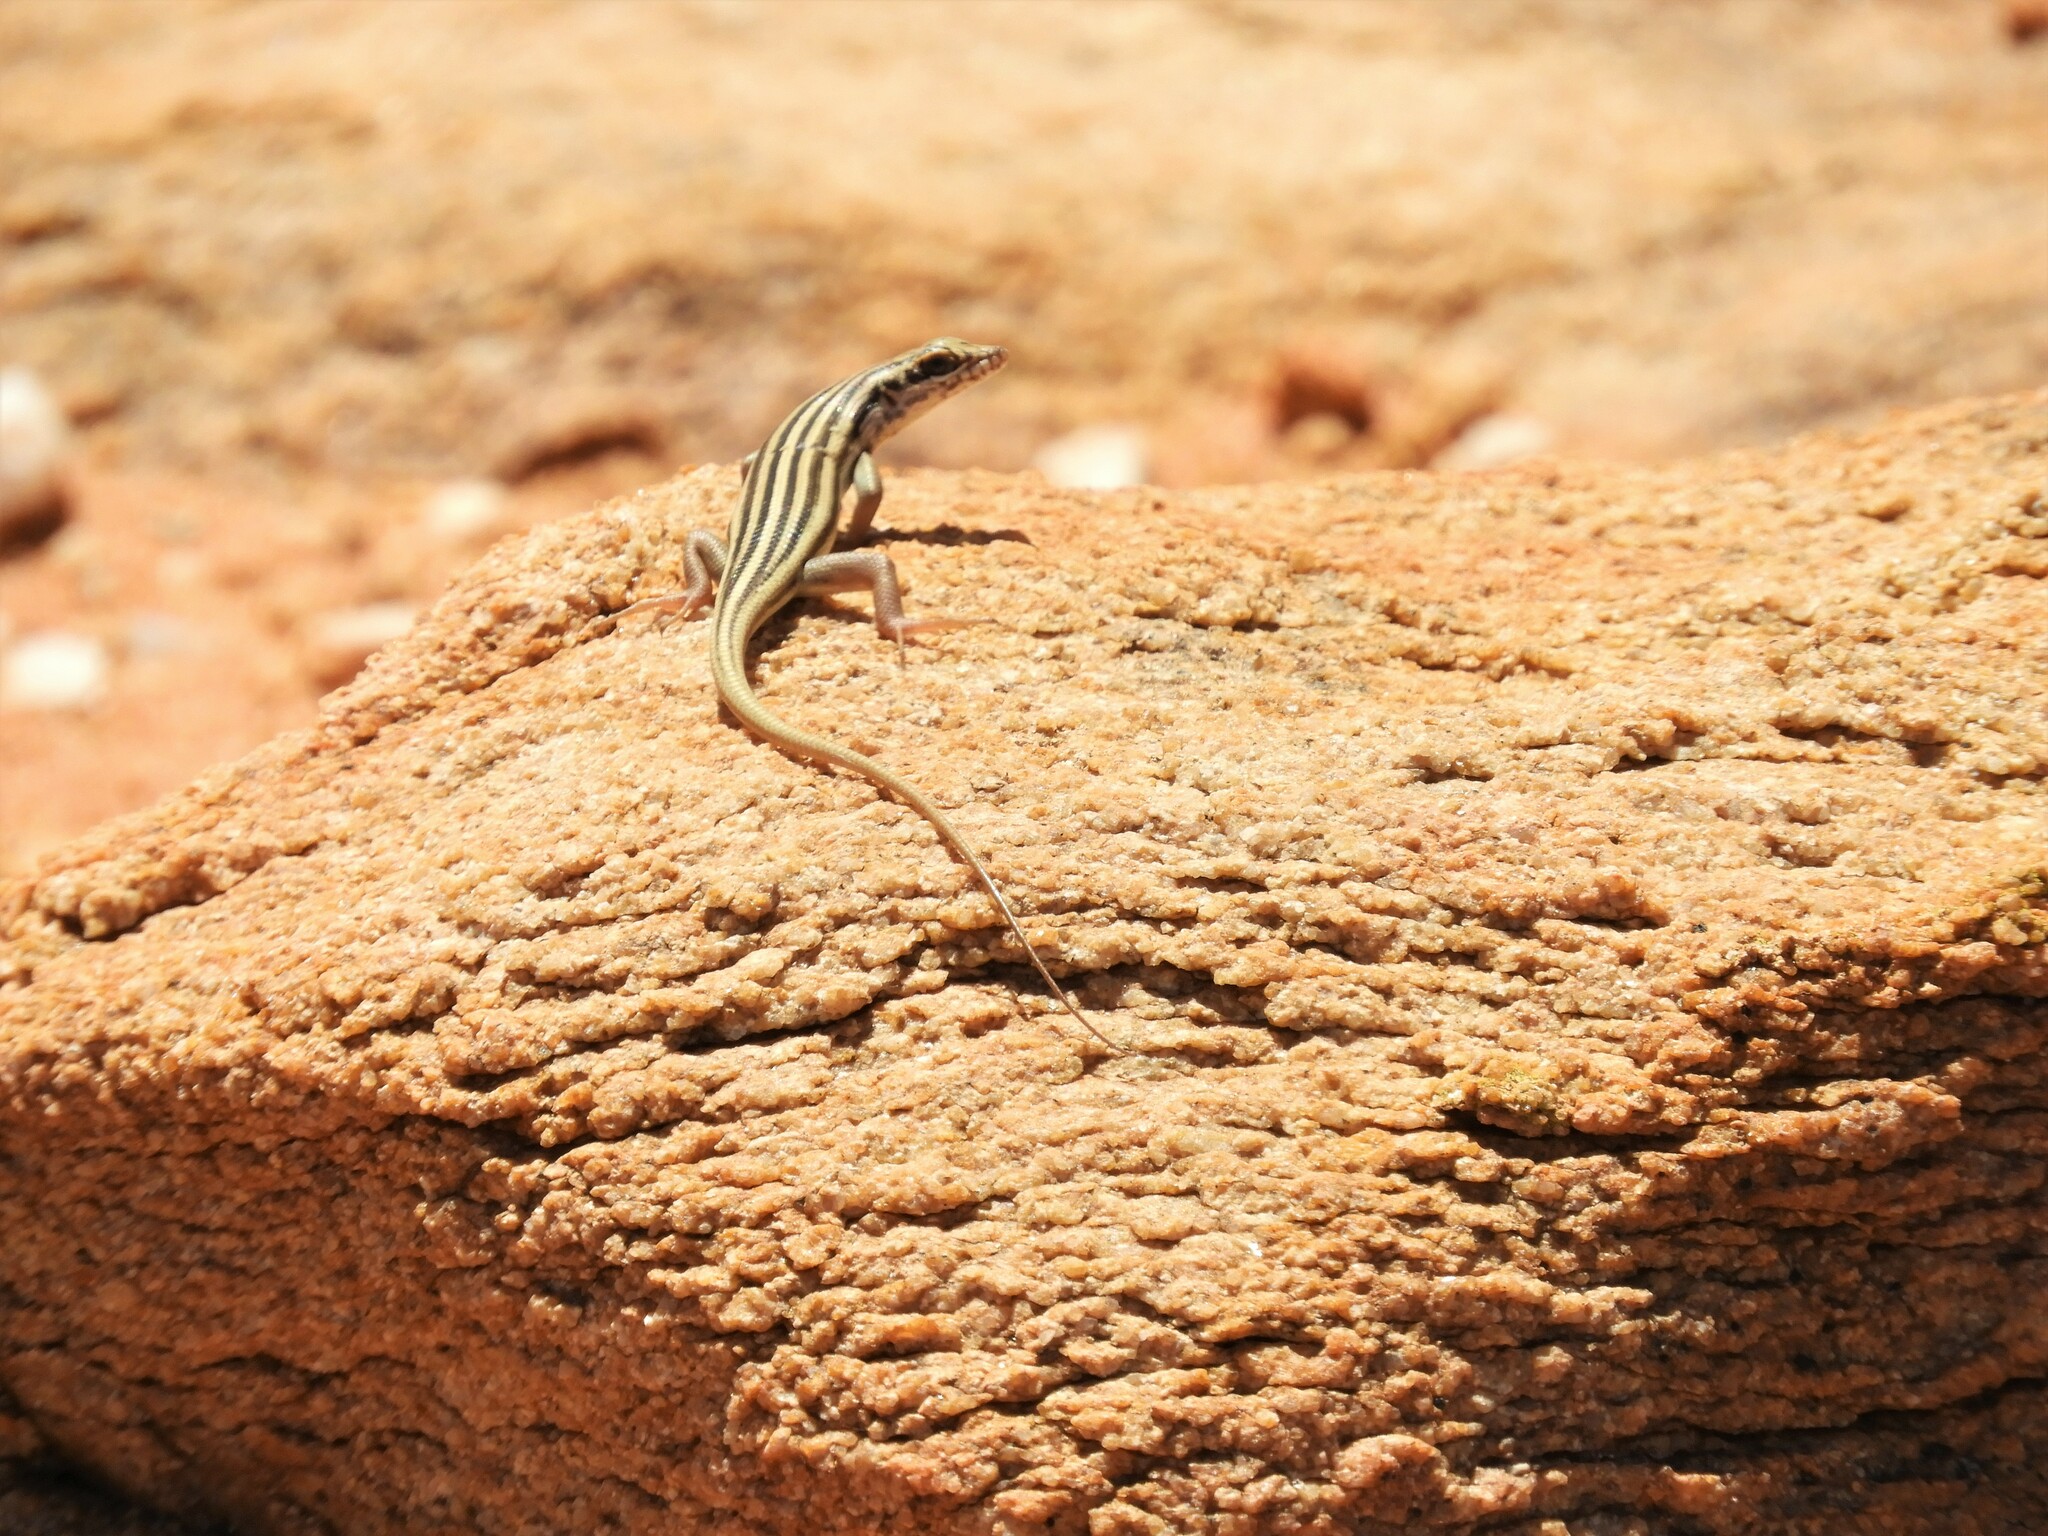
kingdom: Animalia
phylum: Chordata
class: Squamata
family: Scincidae
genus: Trachylepis
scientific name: Trachylepis sulcata
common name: Western rock skink
